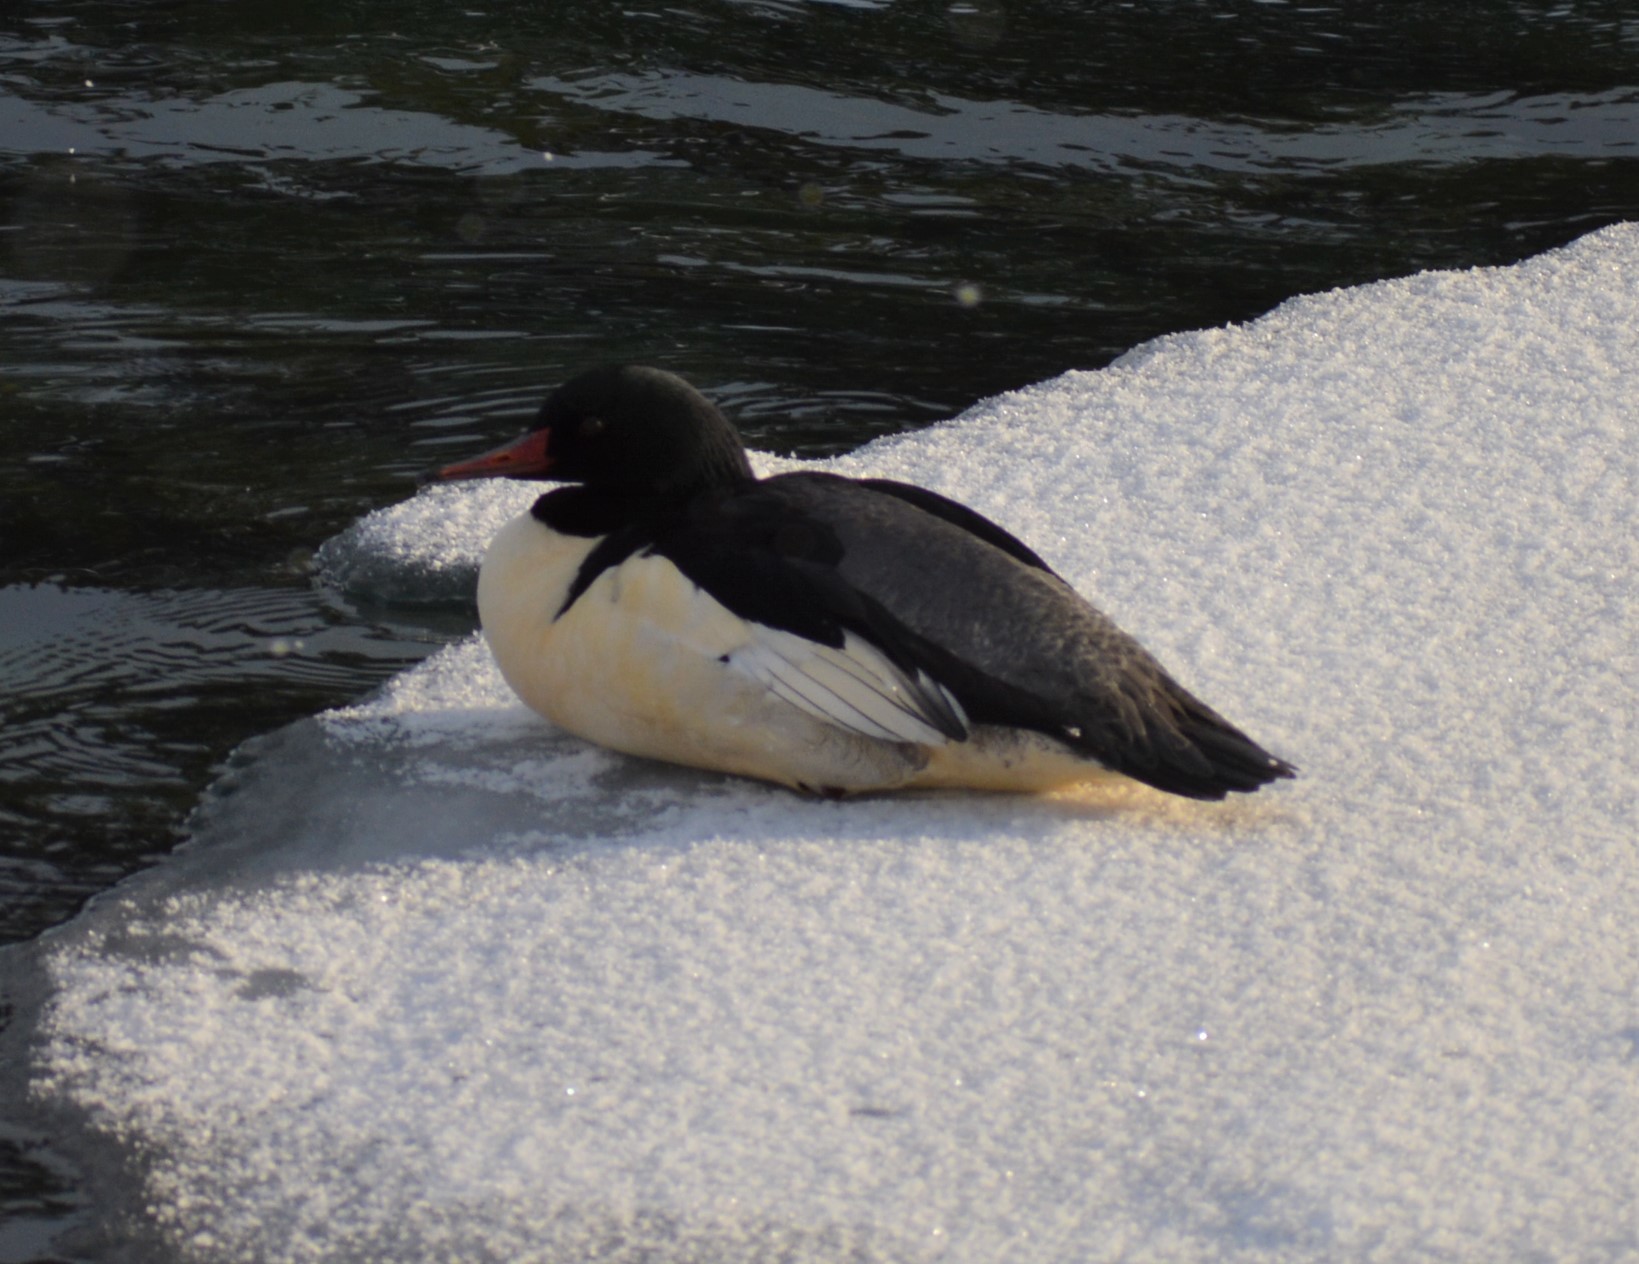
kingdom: Animalia
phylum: Chordata
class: Aves
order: Anseriformes
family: Anatidae
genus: Mergus
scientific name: Mergus merganser
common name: Common merganser
